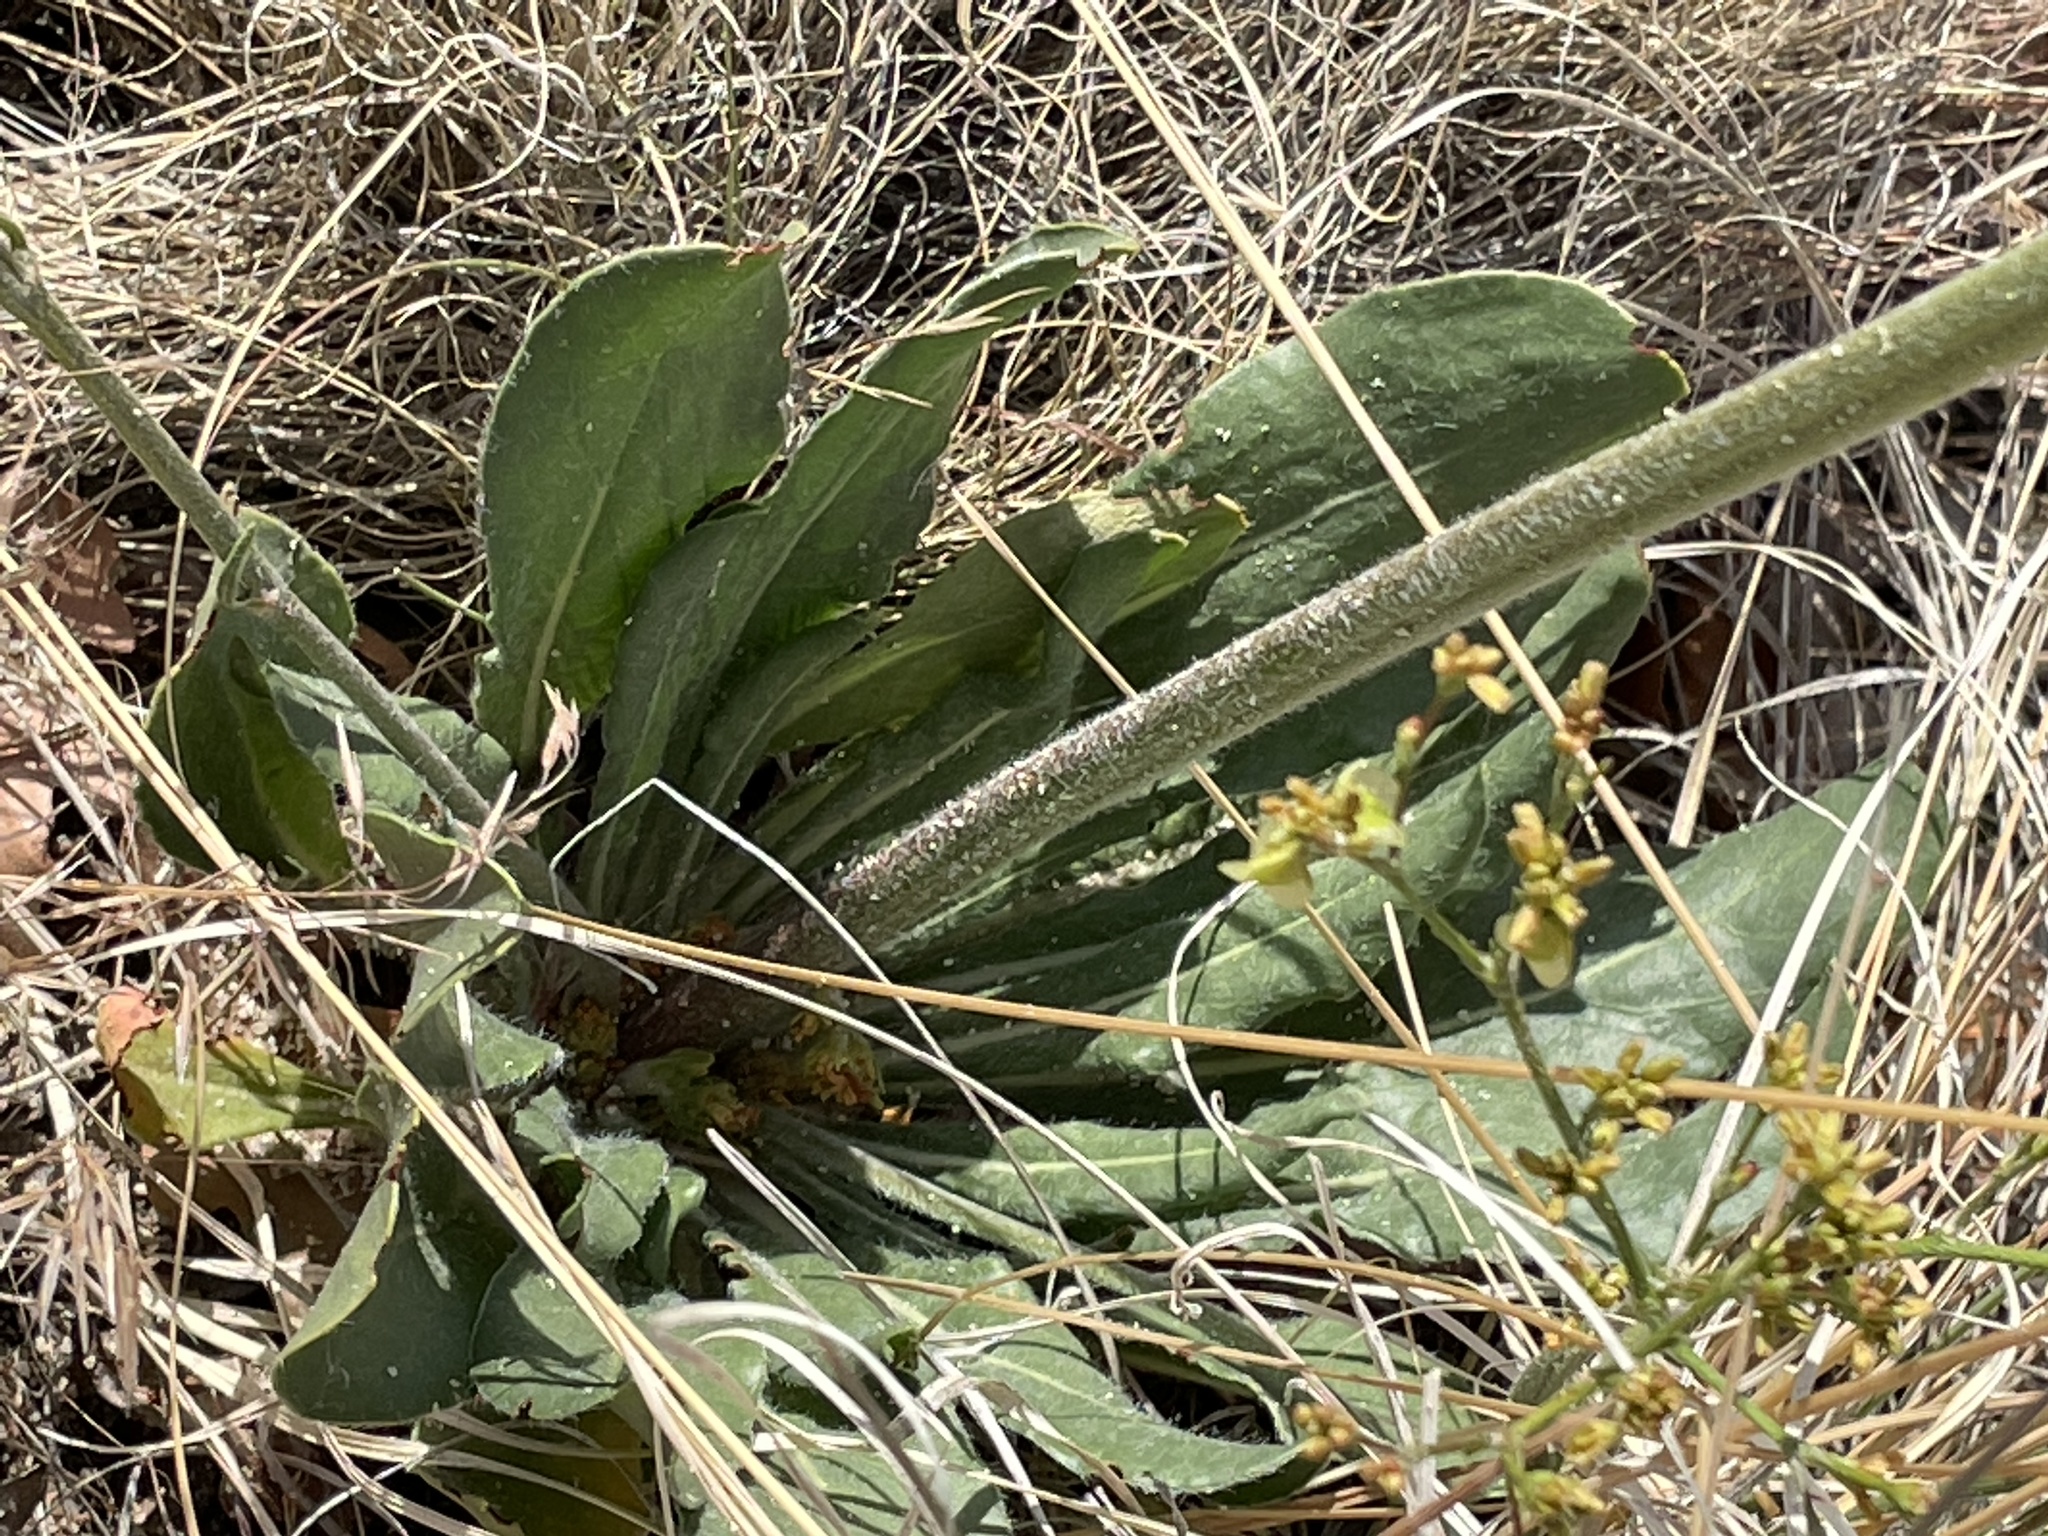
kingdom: Plantae
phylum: Tracheophyta
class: Magnoliopsida
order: Caryophyllales
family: Polygonaceae
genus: Eriogonum
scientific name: Eriogonum alatum
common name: Winged eriogonum
